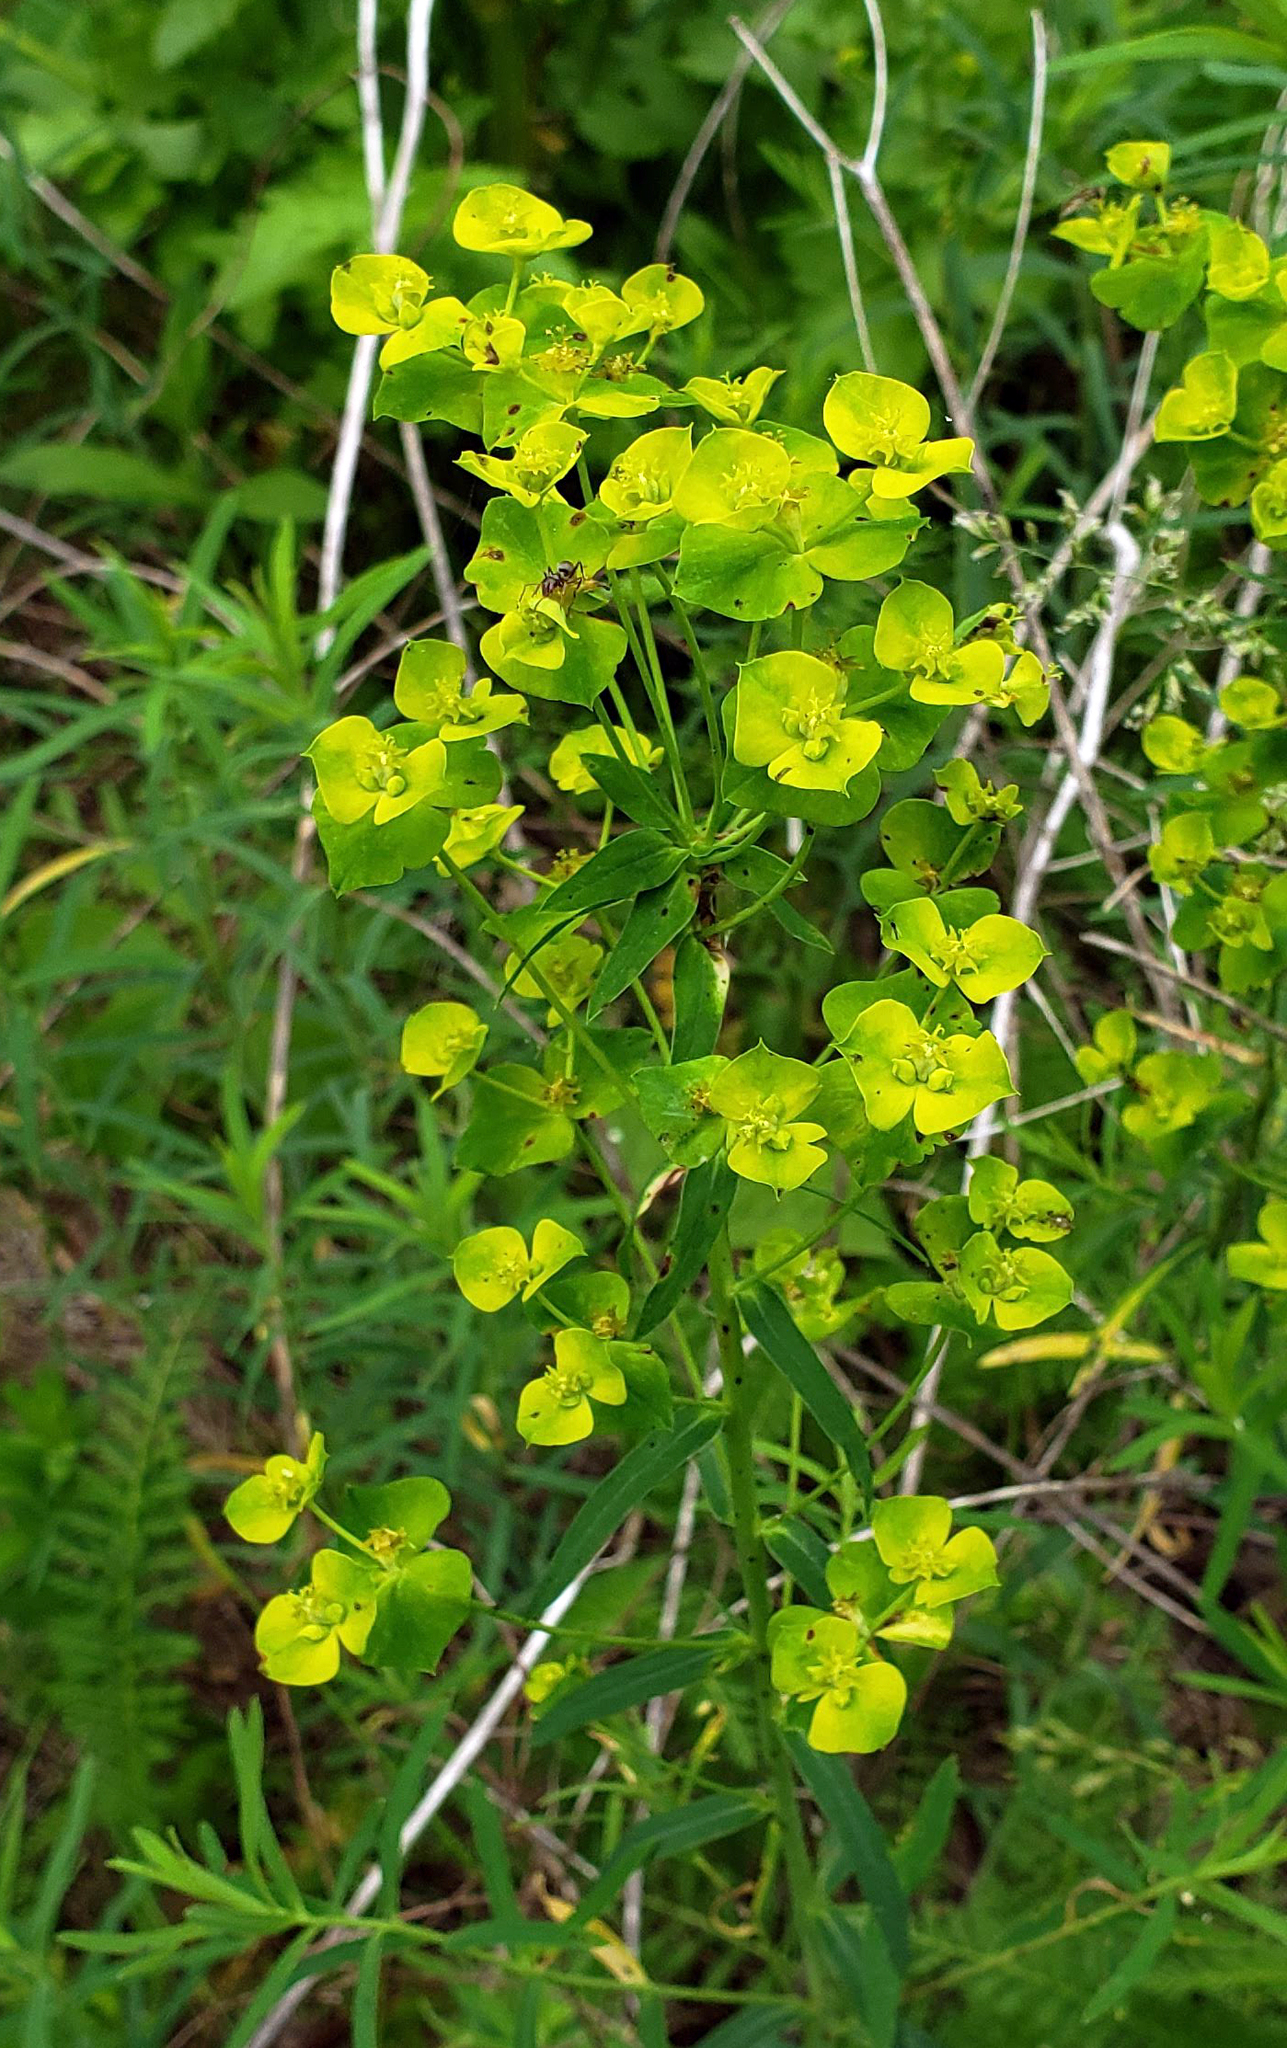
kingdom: Plantae
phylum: Tracheophyta
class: Magnoliopsida
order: Malpighiales
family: Euphorbiaceae
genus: Euphorbia
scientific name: Euphorbia virgata
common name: Leafy spurge
